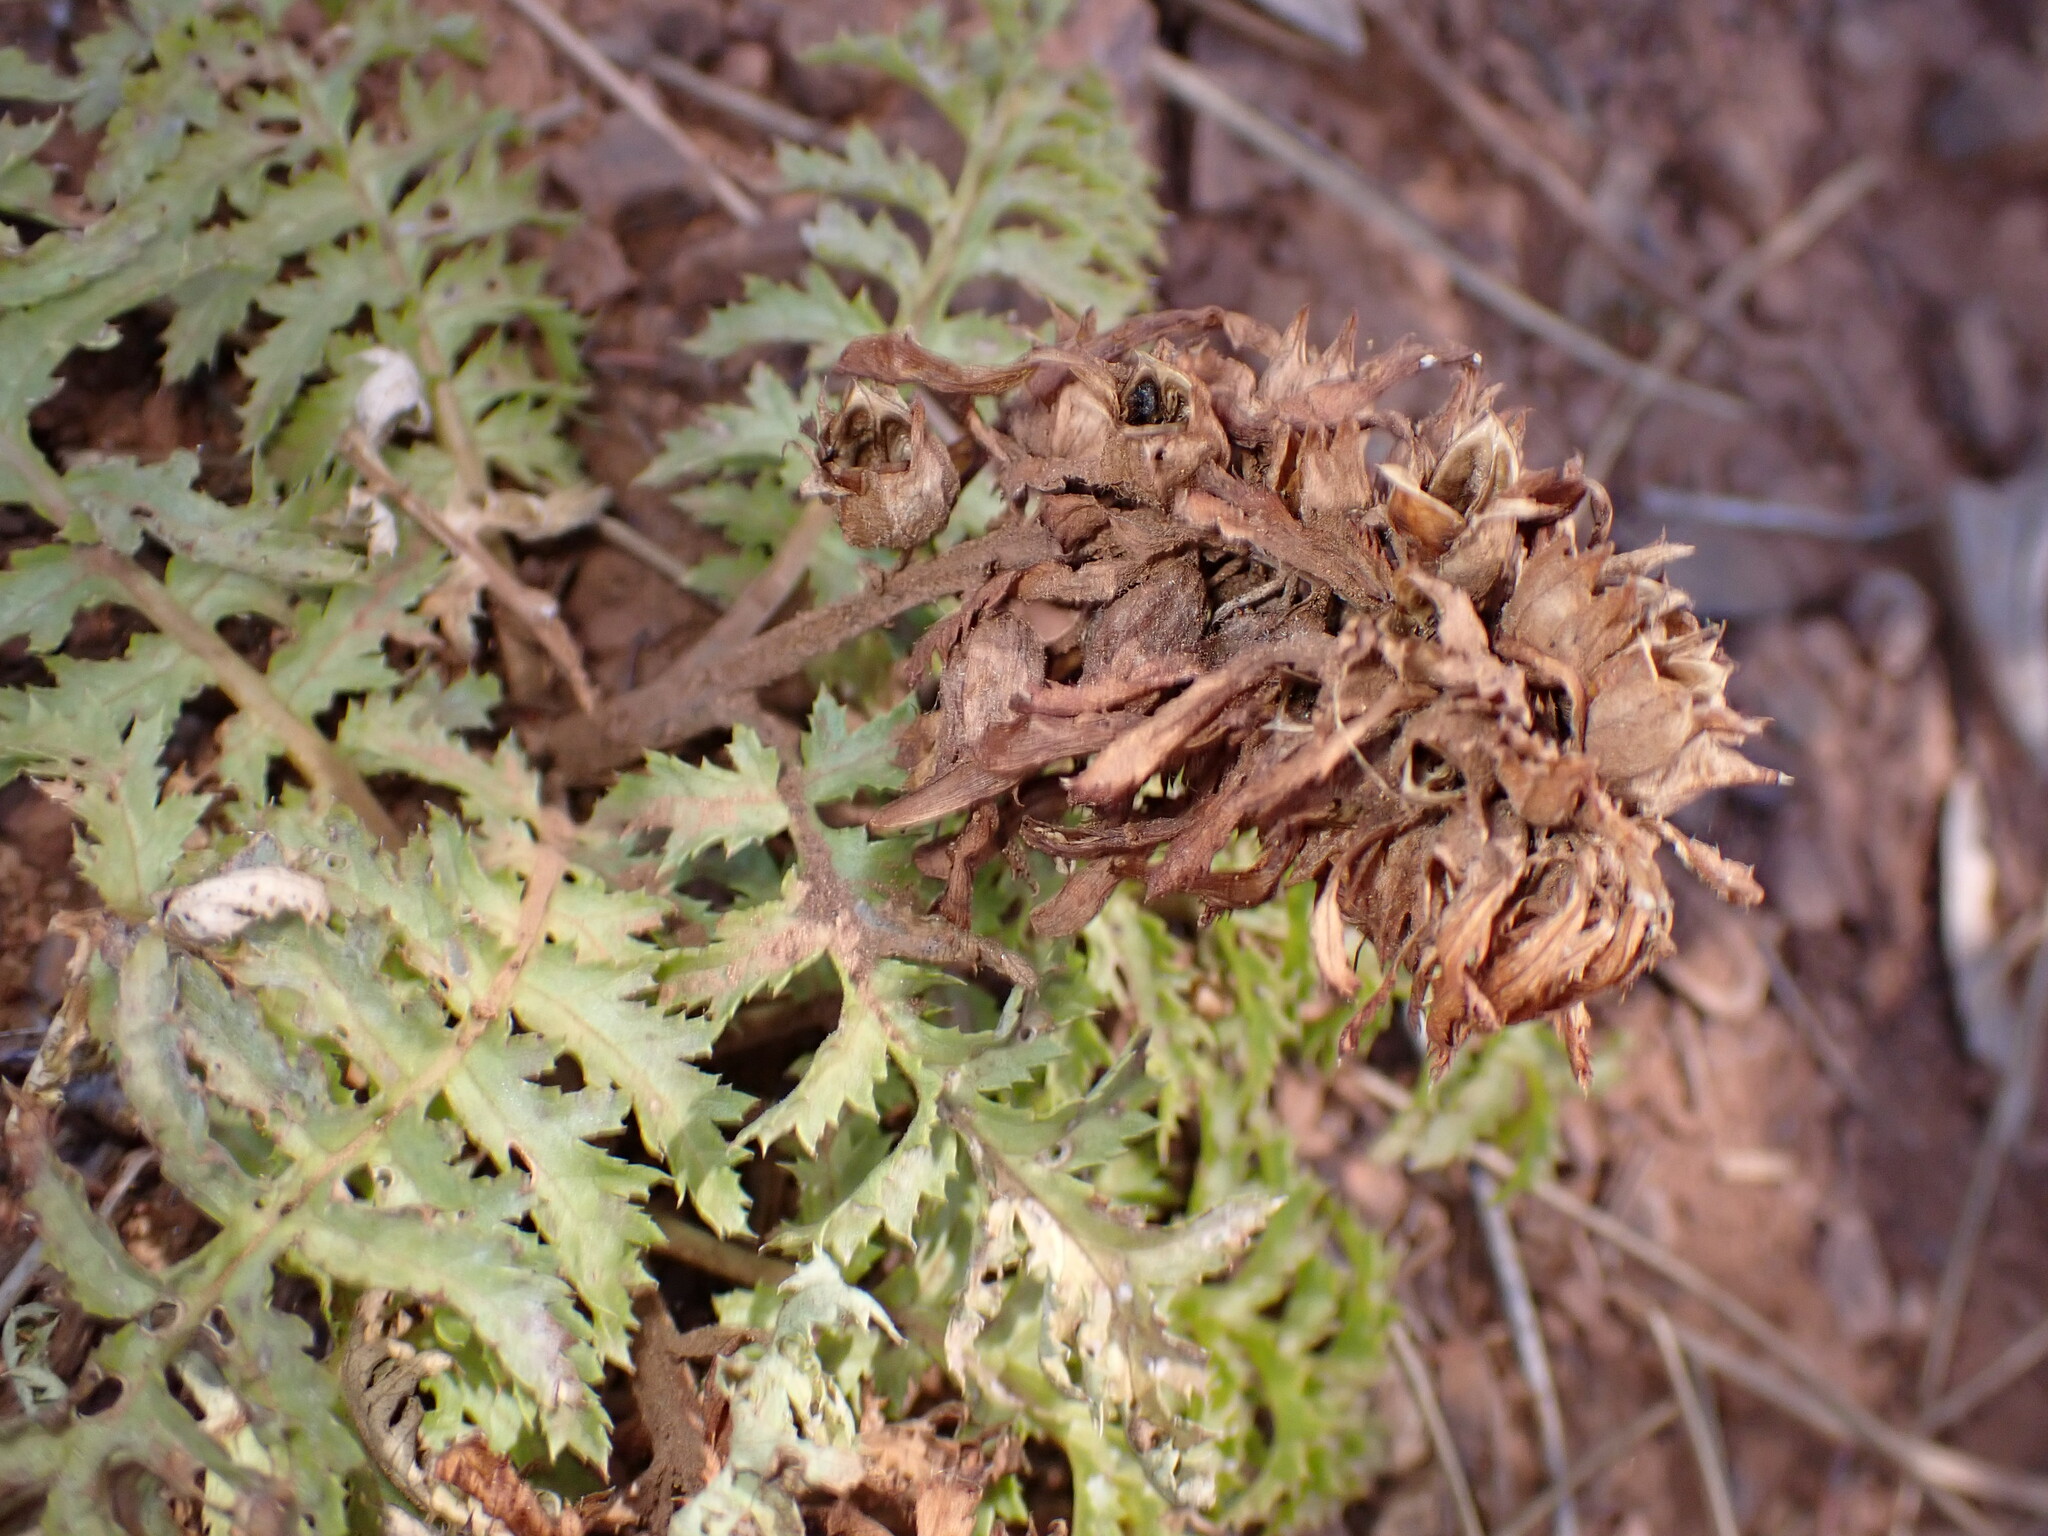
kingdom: Plantae
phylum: Tracheophyta
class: Magnoliopsida
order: Lamiales
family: Orobanchaceae
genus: Pedicularis
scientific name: Pedicularis densiflora
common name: Indian warrior
